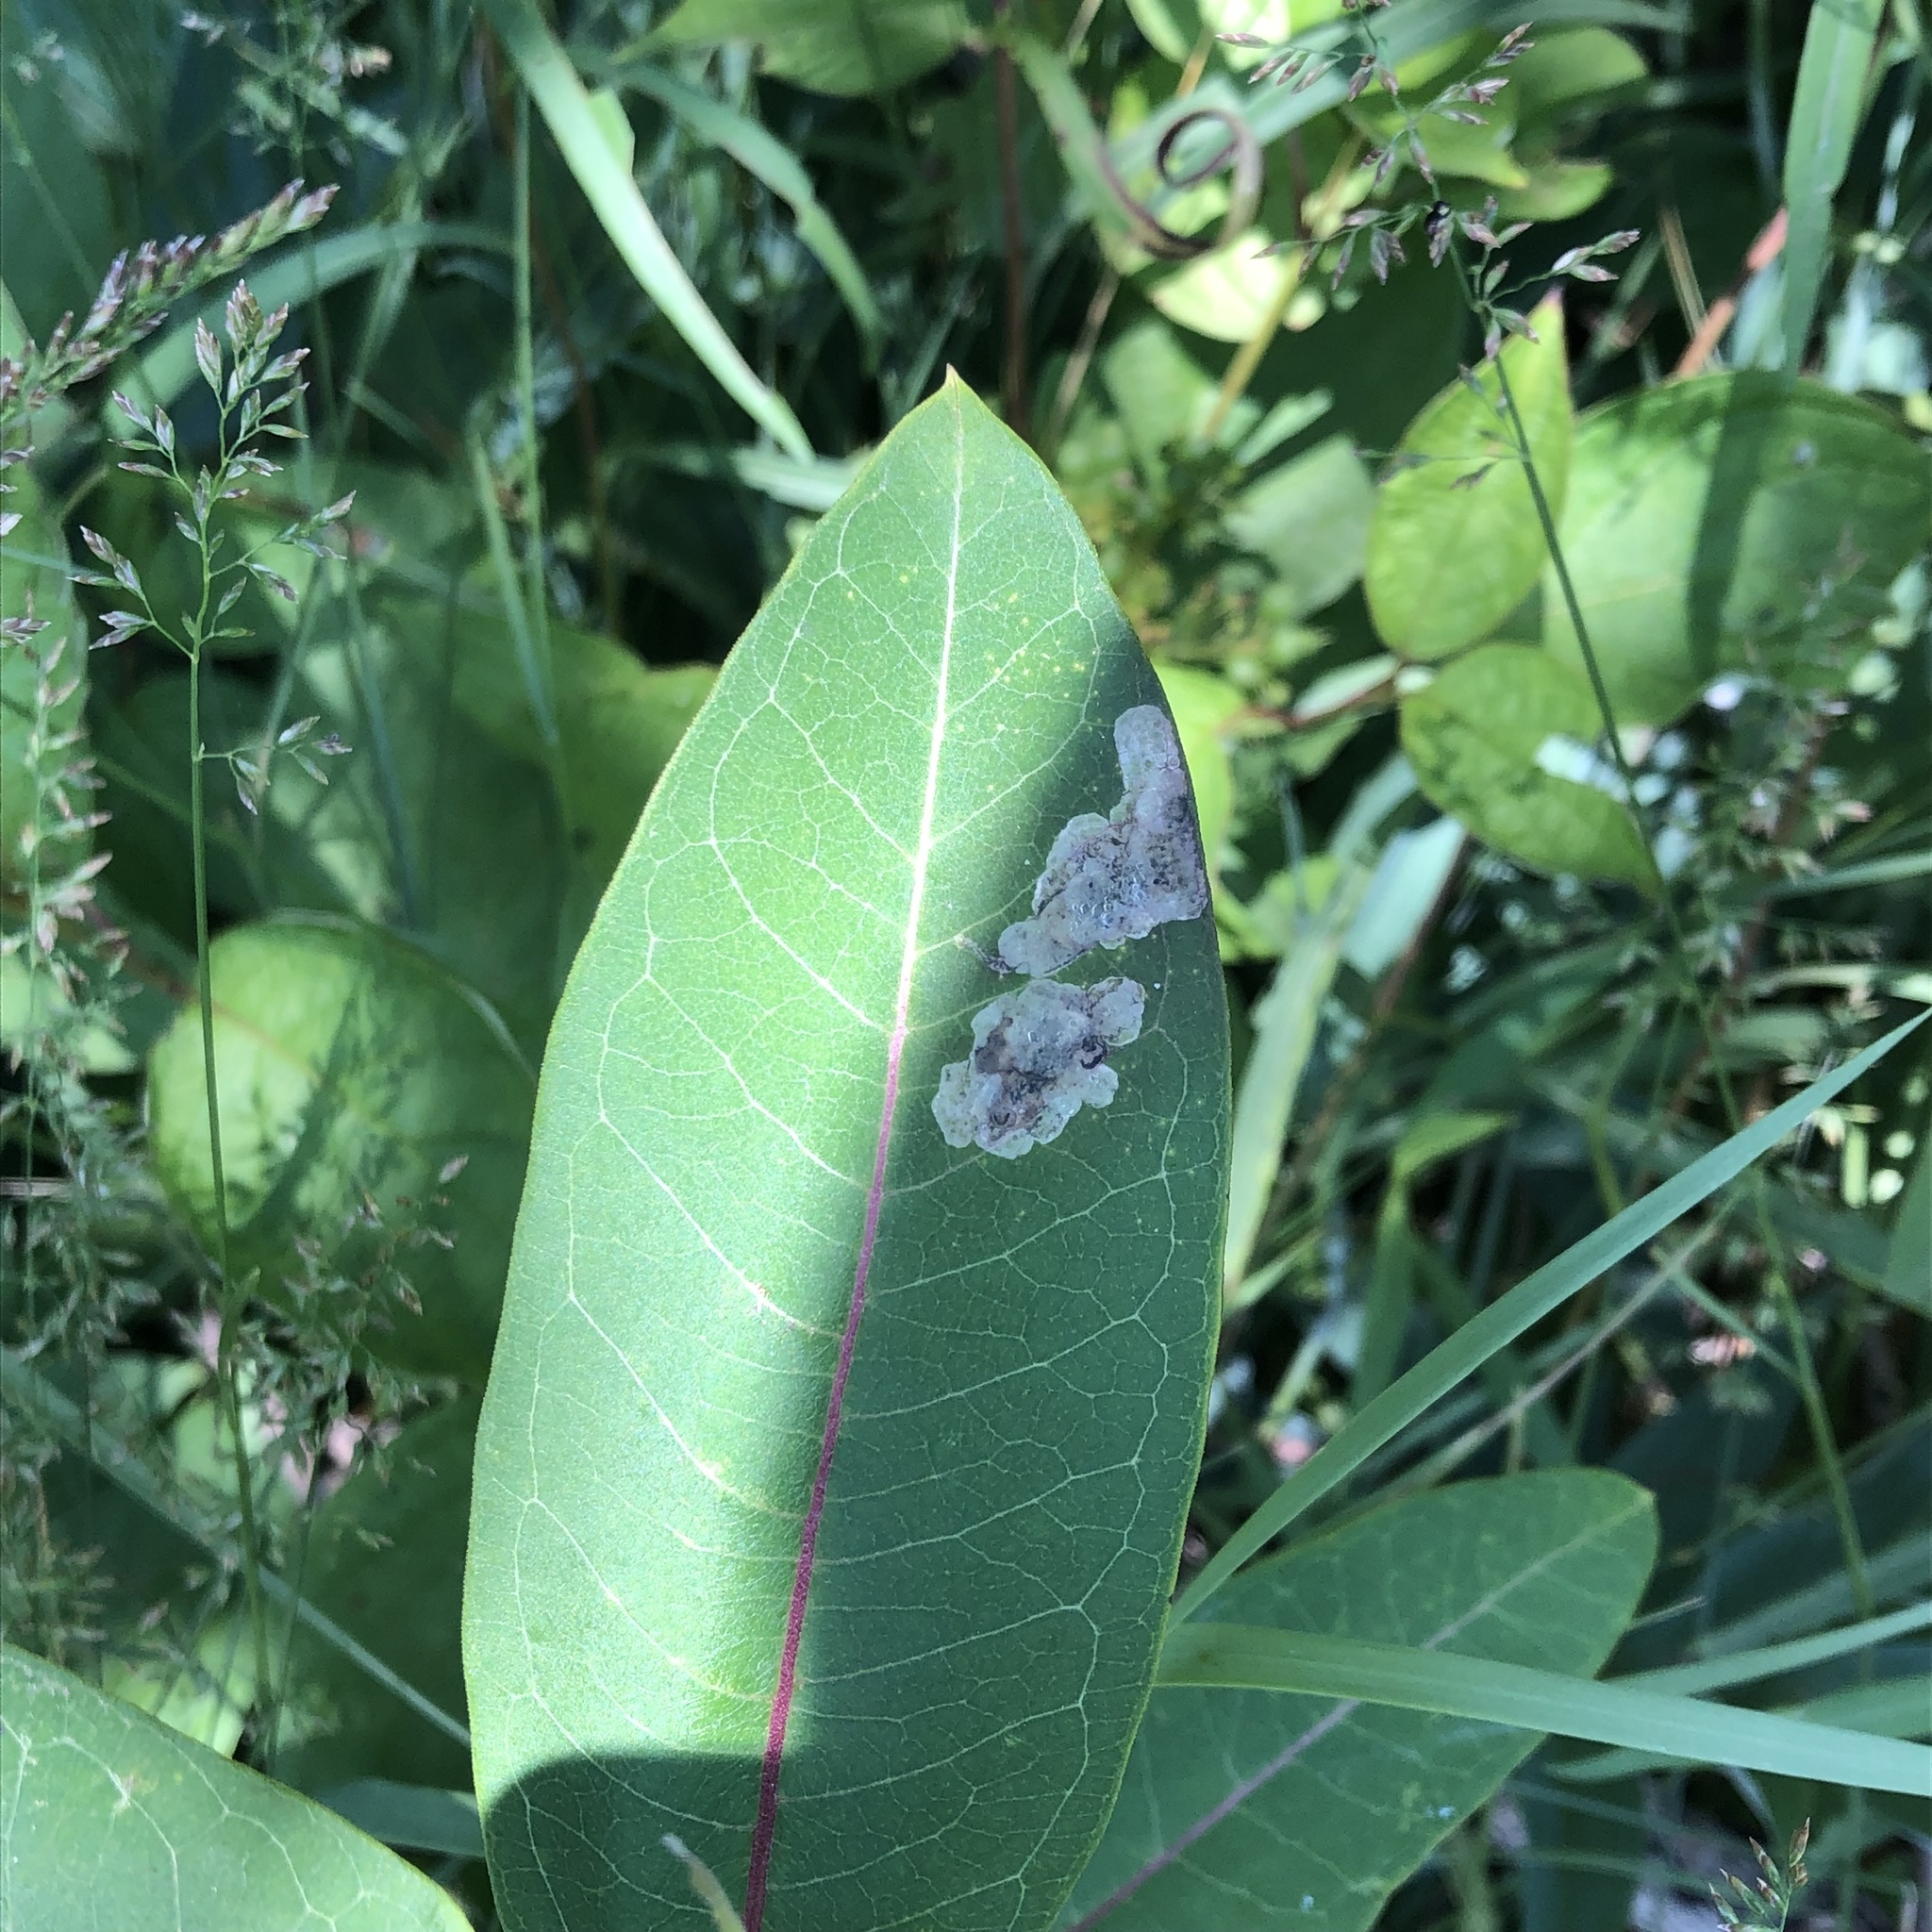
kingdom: Animalia
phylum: Arthropoda
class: Insecta
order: Diptera
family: Agromyzidae
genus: Liriomyza
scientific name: Liriomyza asclepiadis
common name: Milkweed leaf-miner fly
